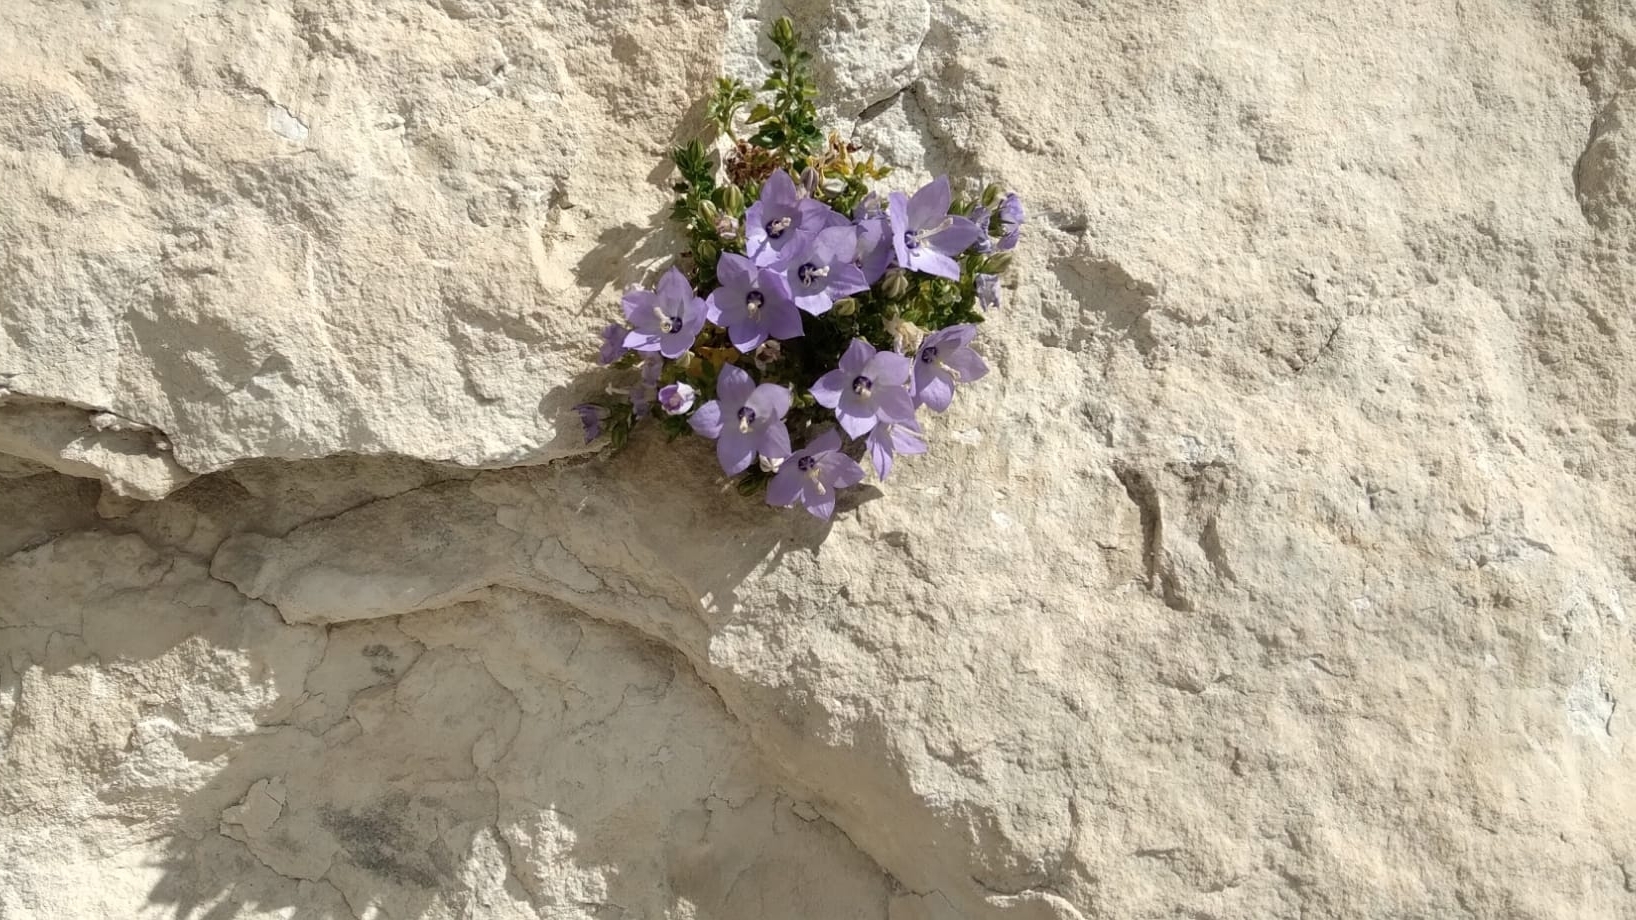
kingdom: Plantae
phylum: Tracheophyta
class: Magnoliopsida
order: Asterales
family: Campanulaceae
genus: Campanula
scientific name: Campanula fragilis
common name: Italian bellflower
